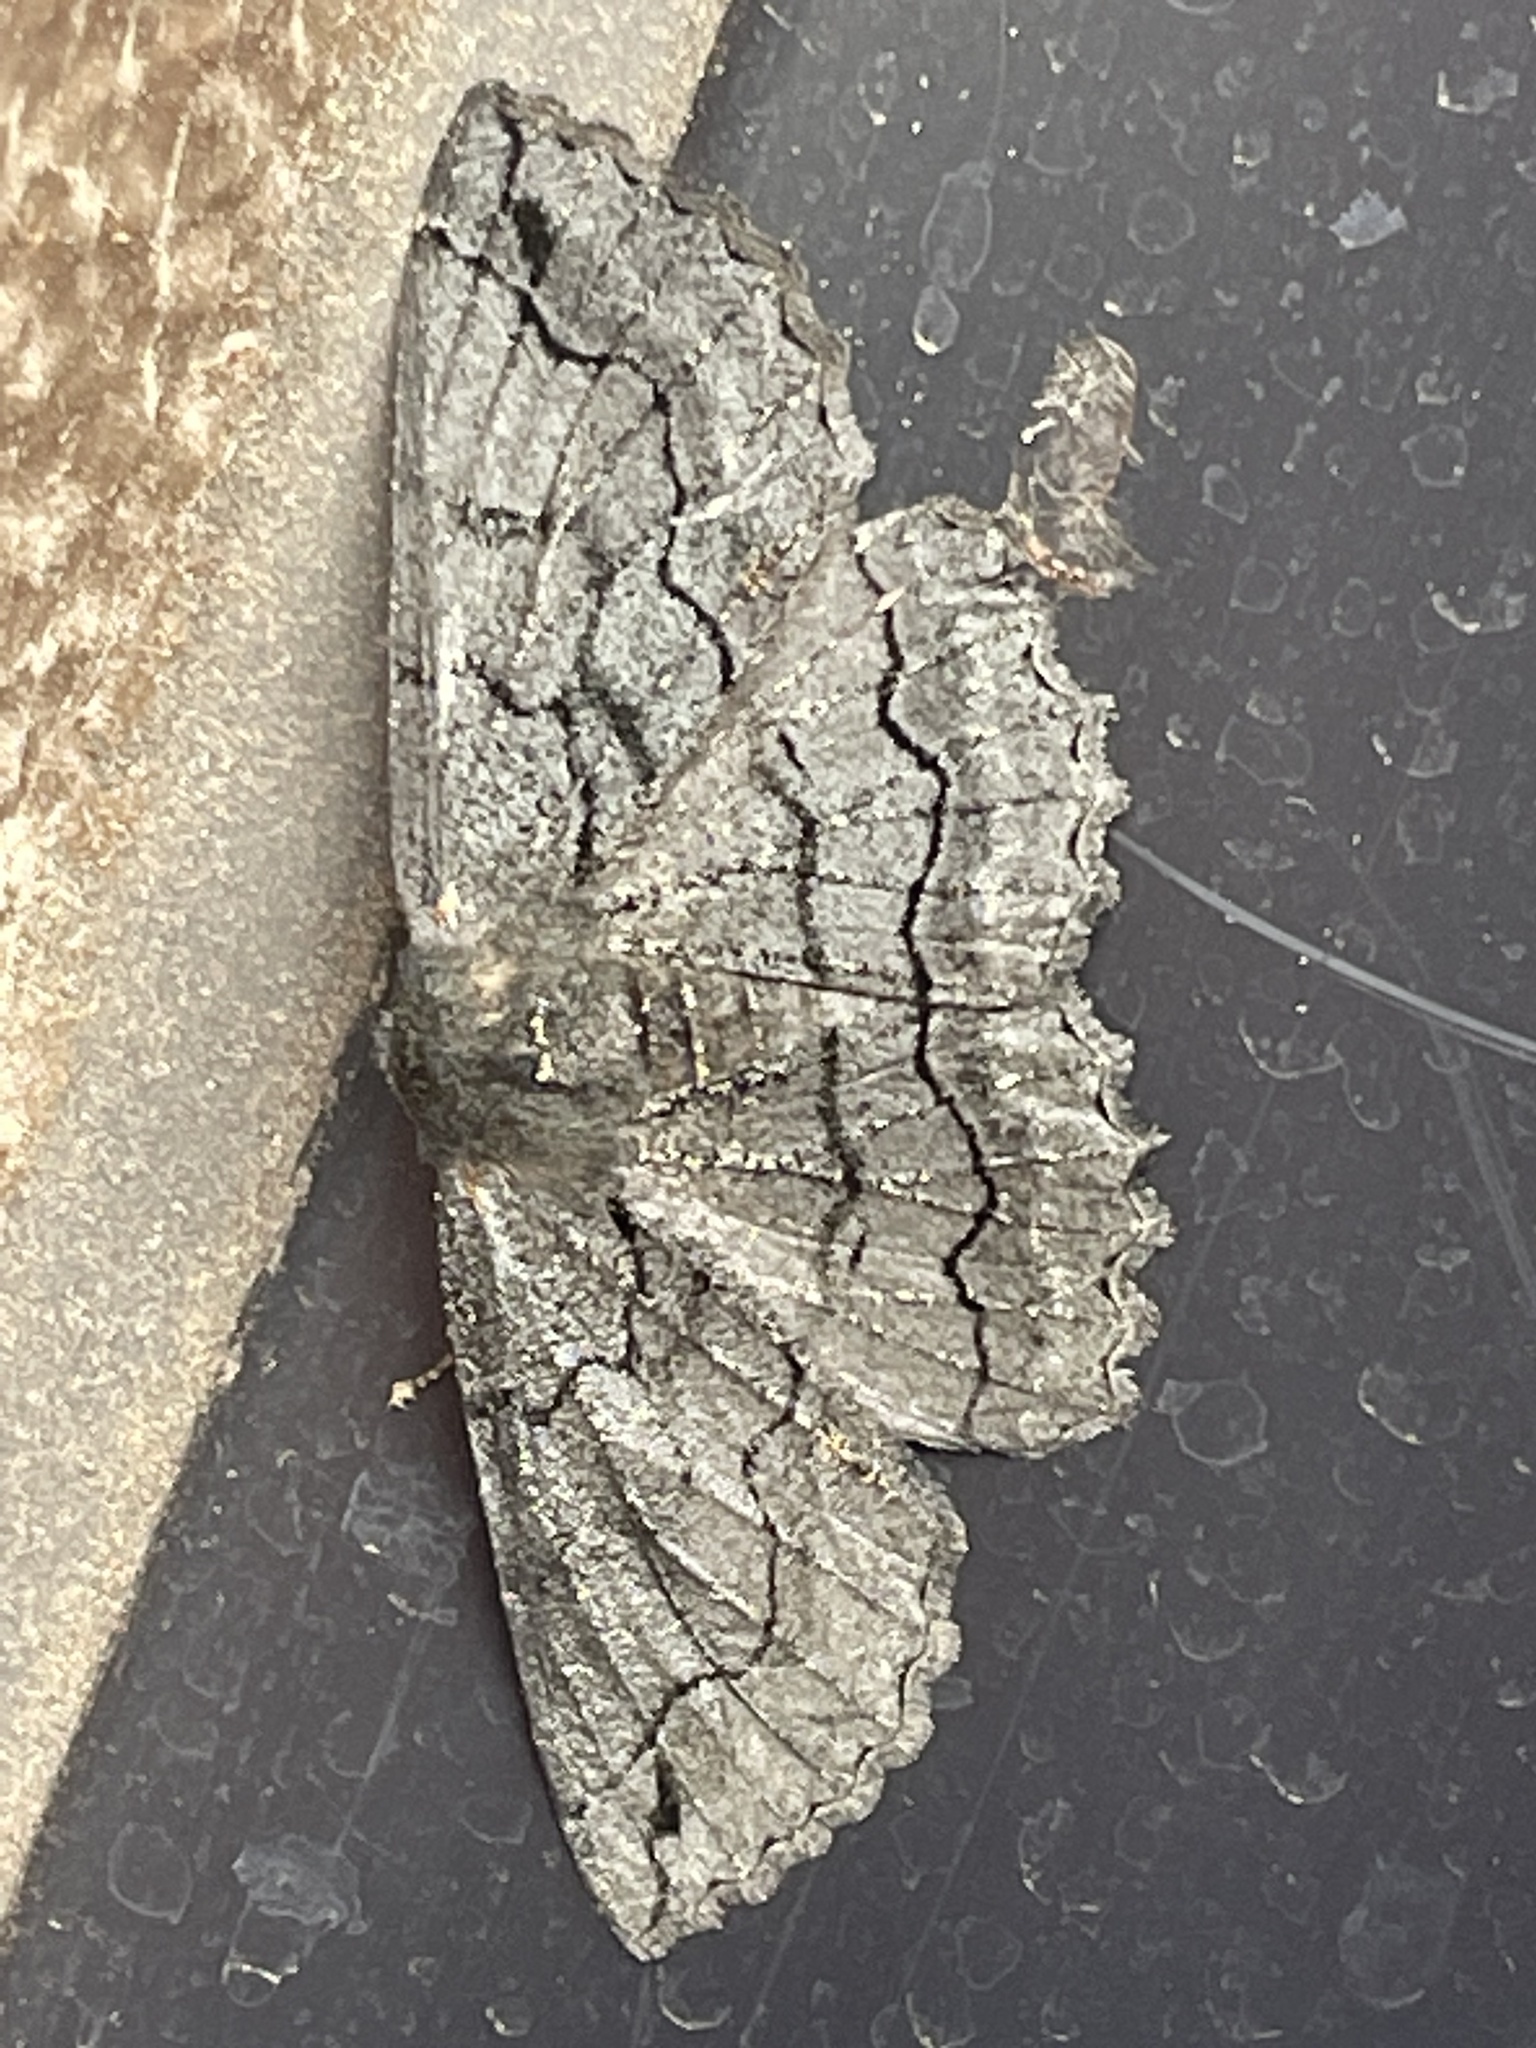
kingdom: Animalia
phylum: Arthropoda
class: Insecta
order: Lepidoptera
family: Geometridae
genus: Melanodes
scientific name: Melanodes anthracitaria
